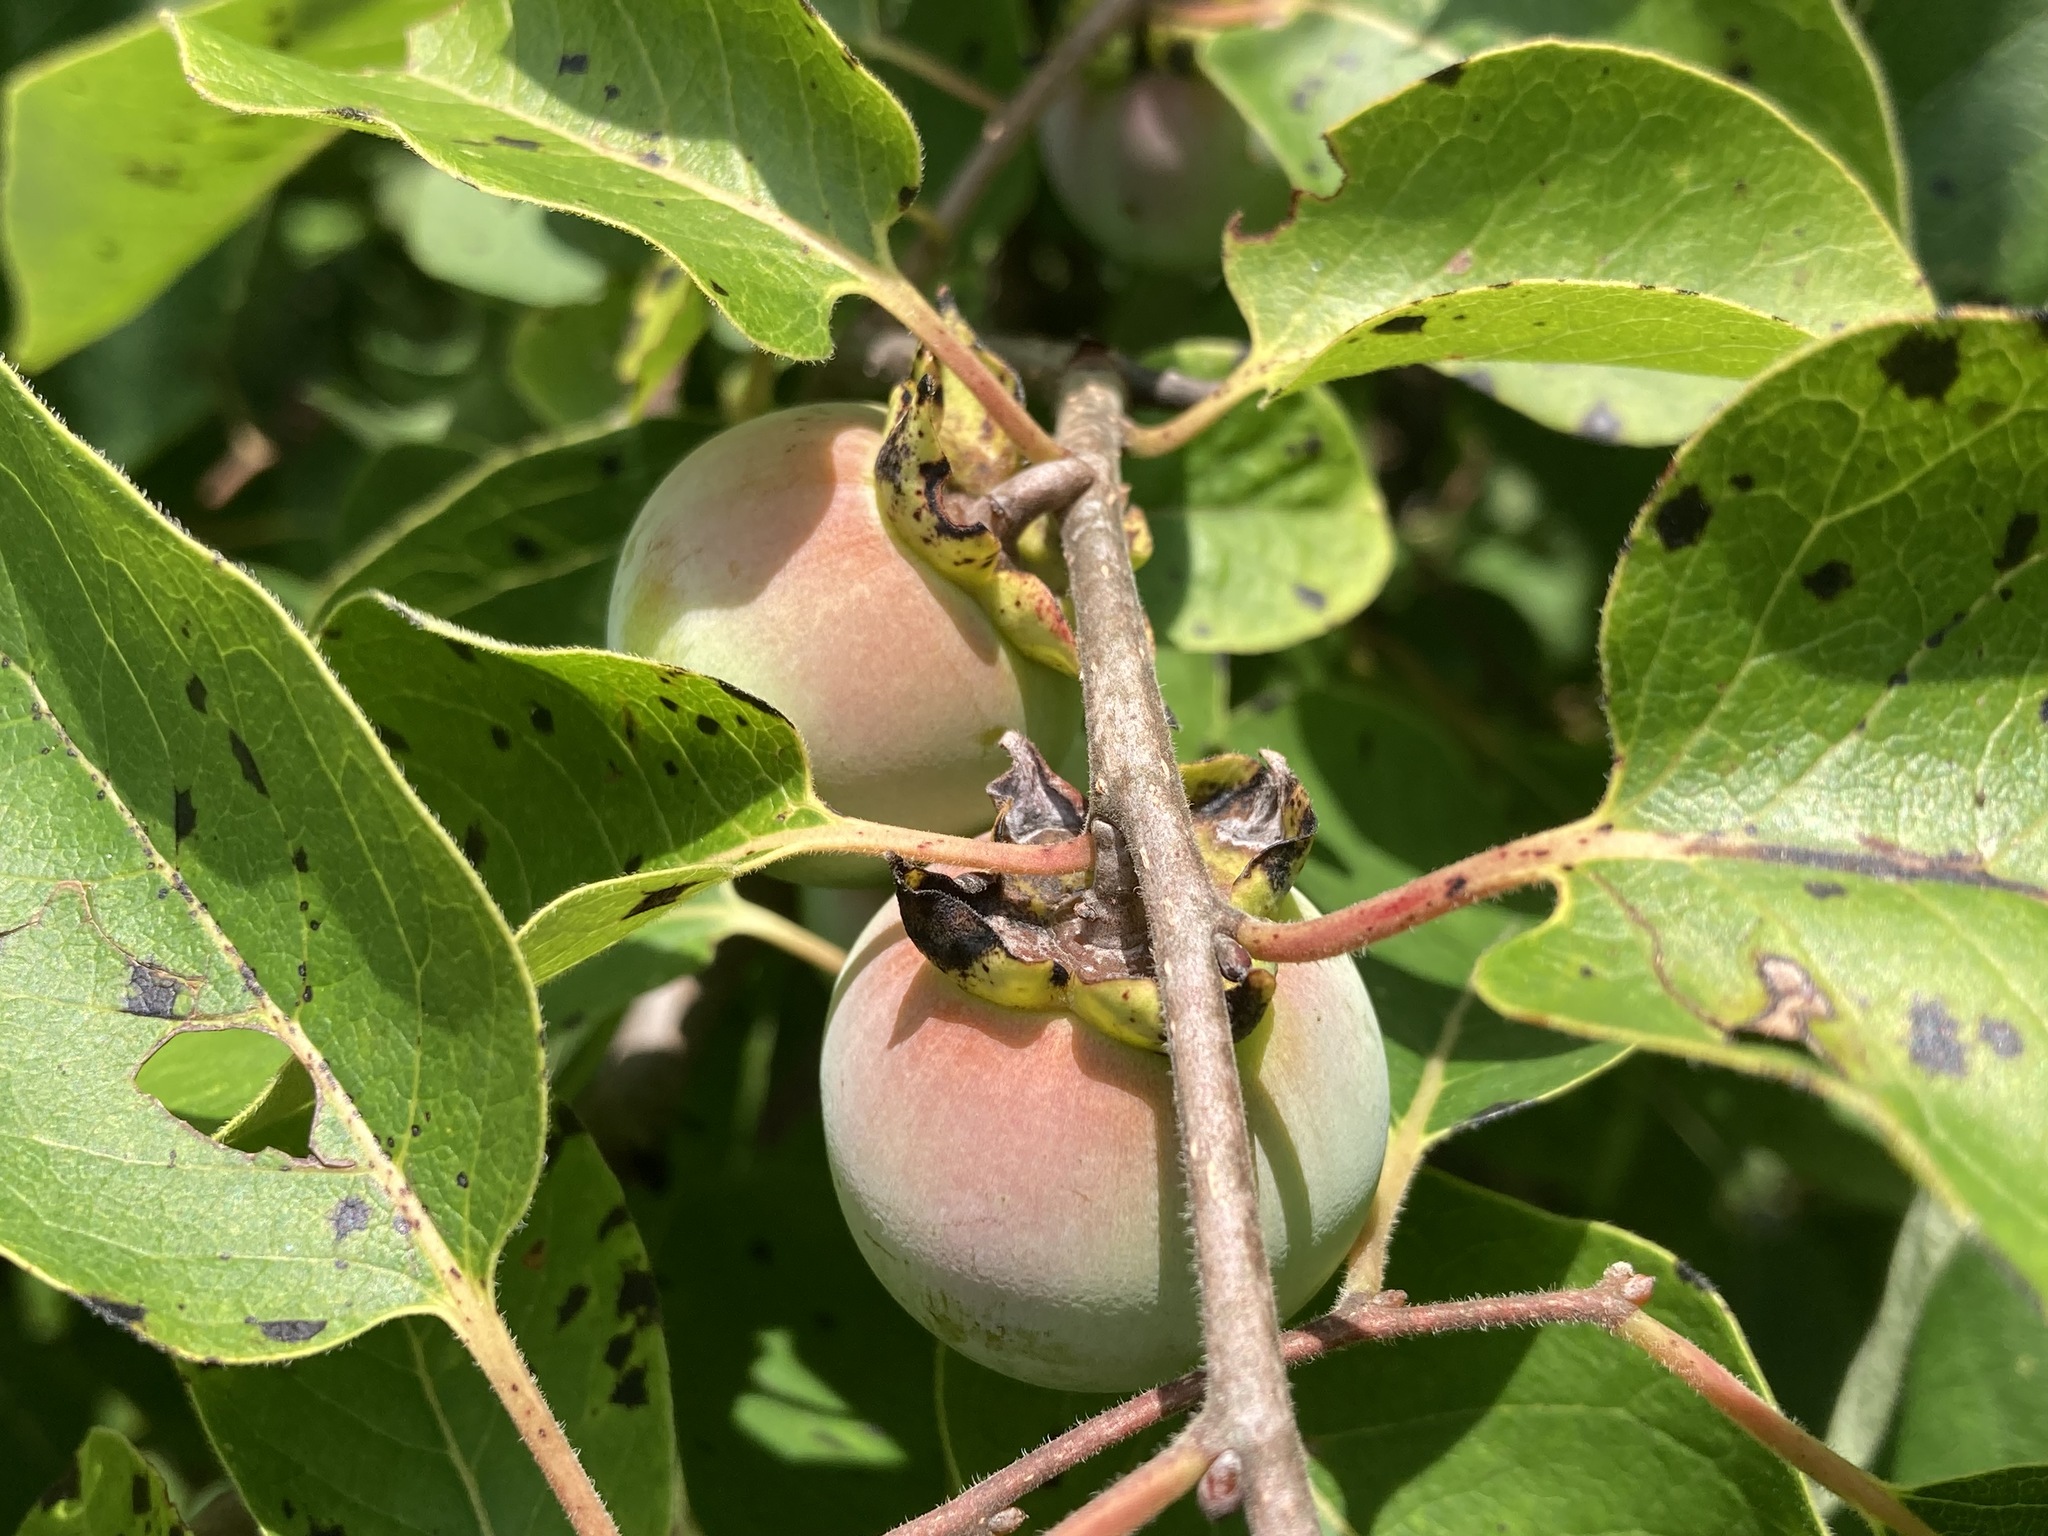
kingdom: Plantae
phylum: Tracheophyta
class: Magnoliopsida
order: Ericales
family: Ebenaceae
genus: Diospyros
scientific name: Diospyros virginiana
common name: Persimmon
